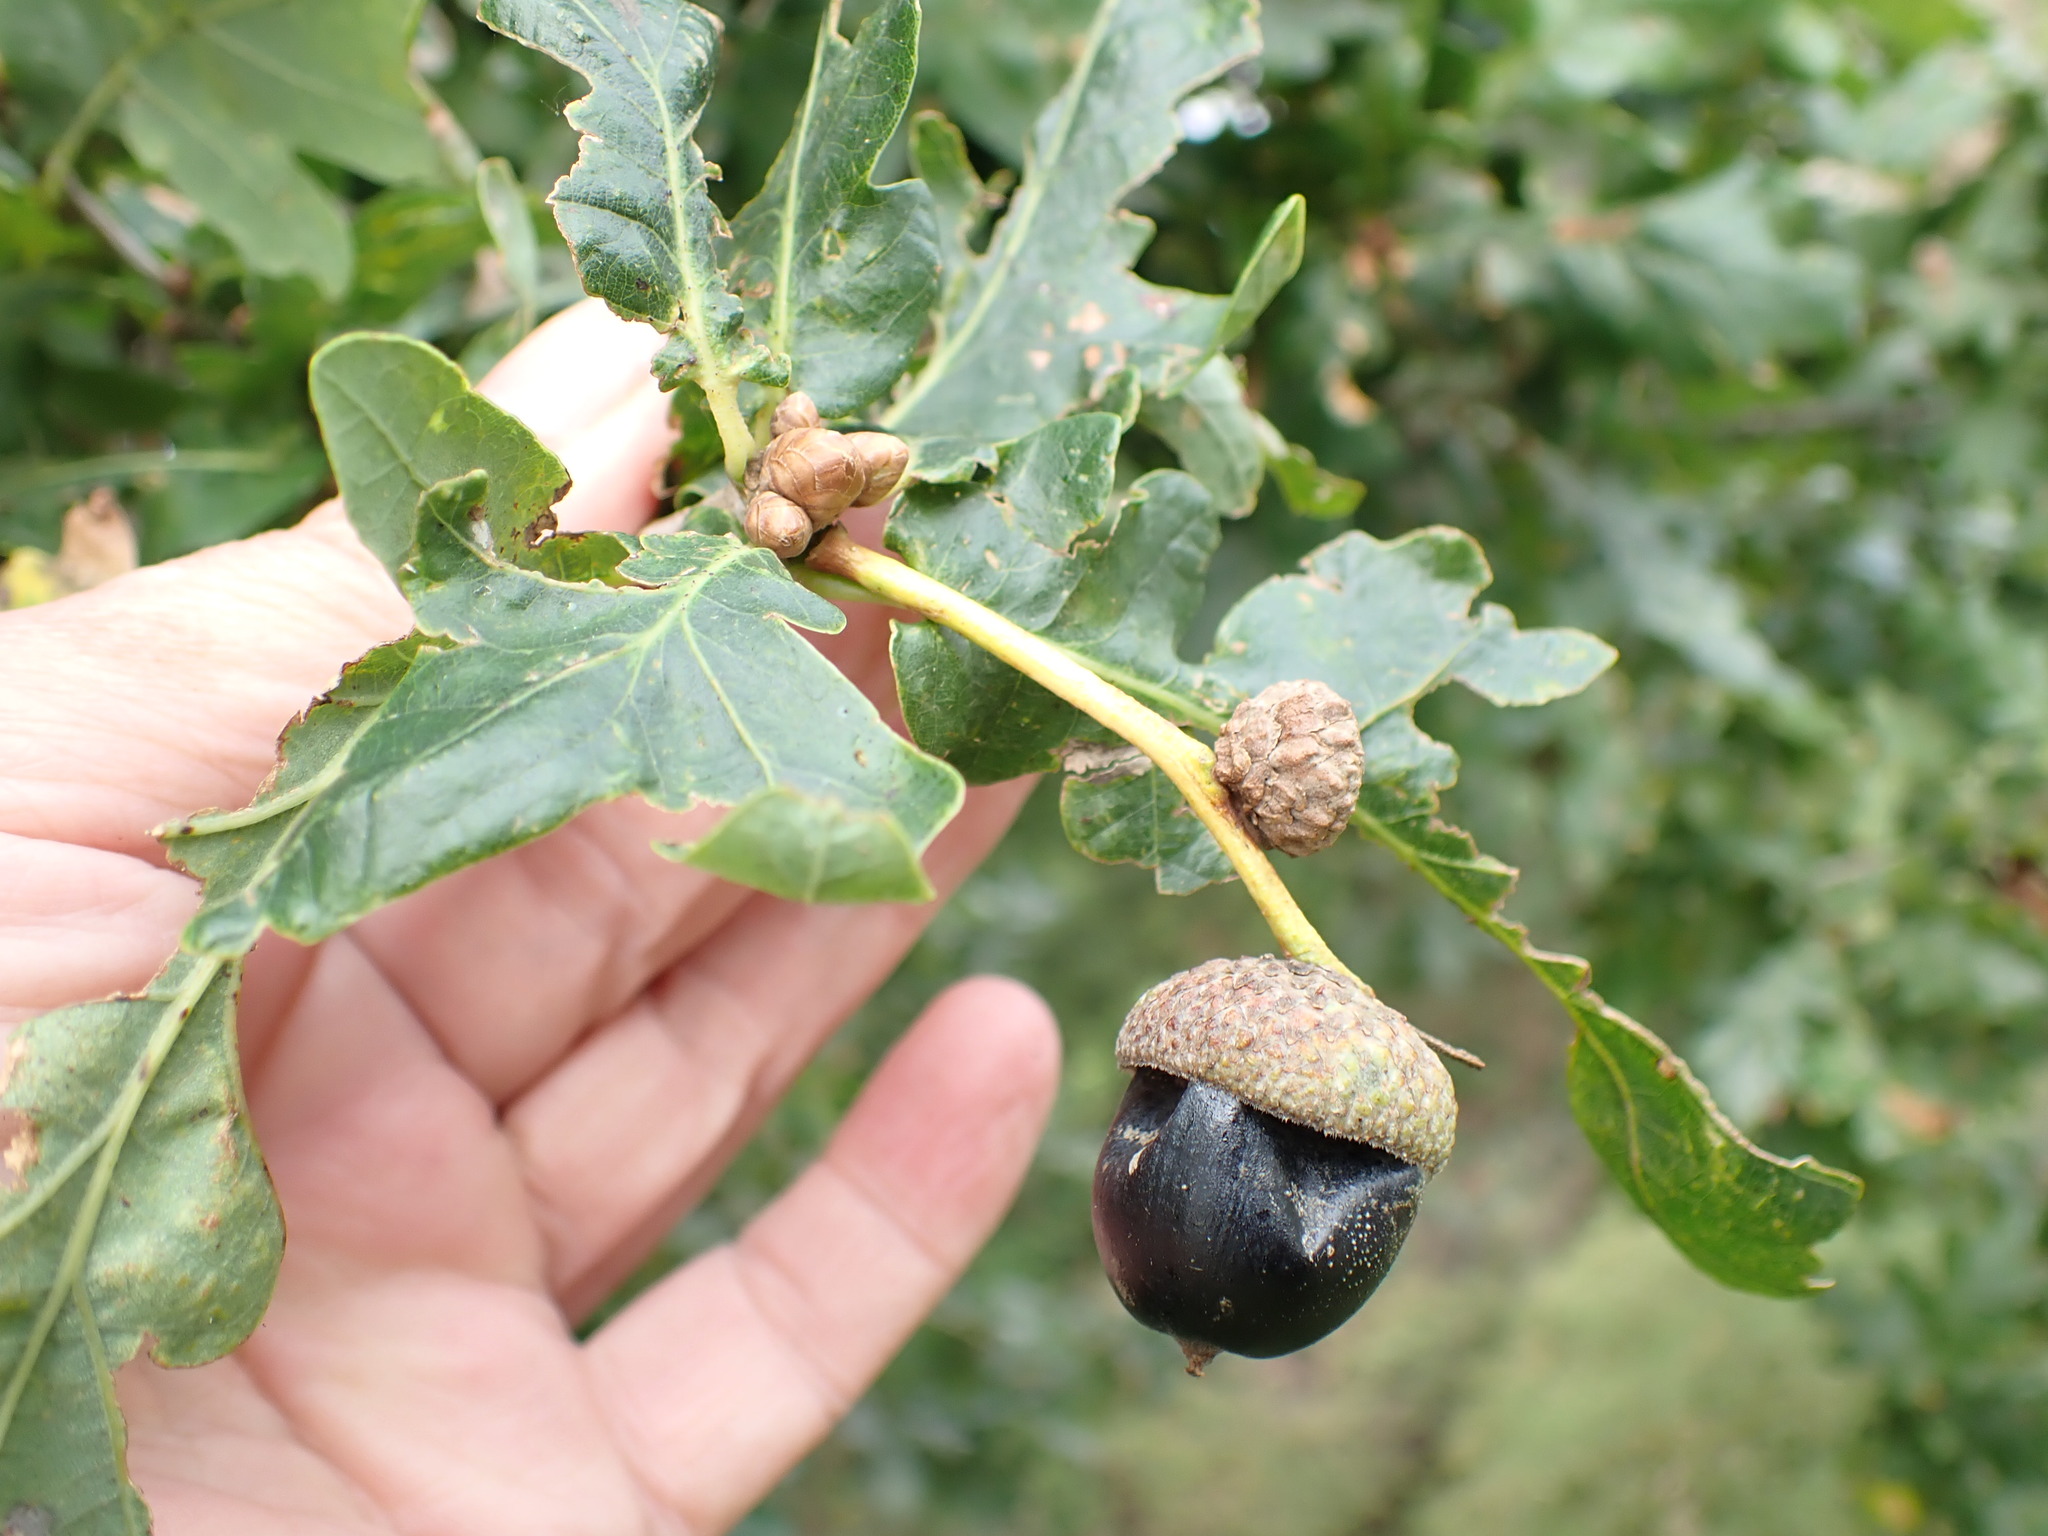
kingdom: Plantae
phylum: Tracheophyta
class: Magnoliopsida
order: Fagales
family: Fagaceae
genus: Quercus
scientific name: Quercus robur
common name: Pedunculate oak
